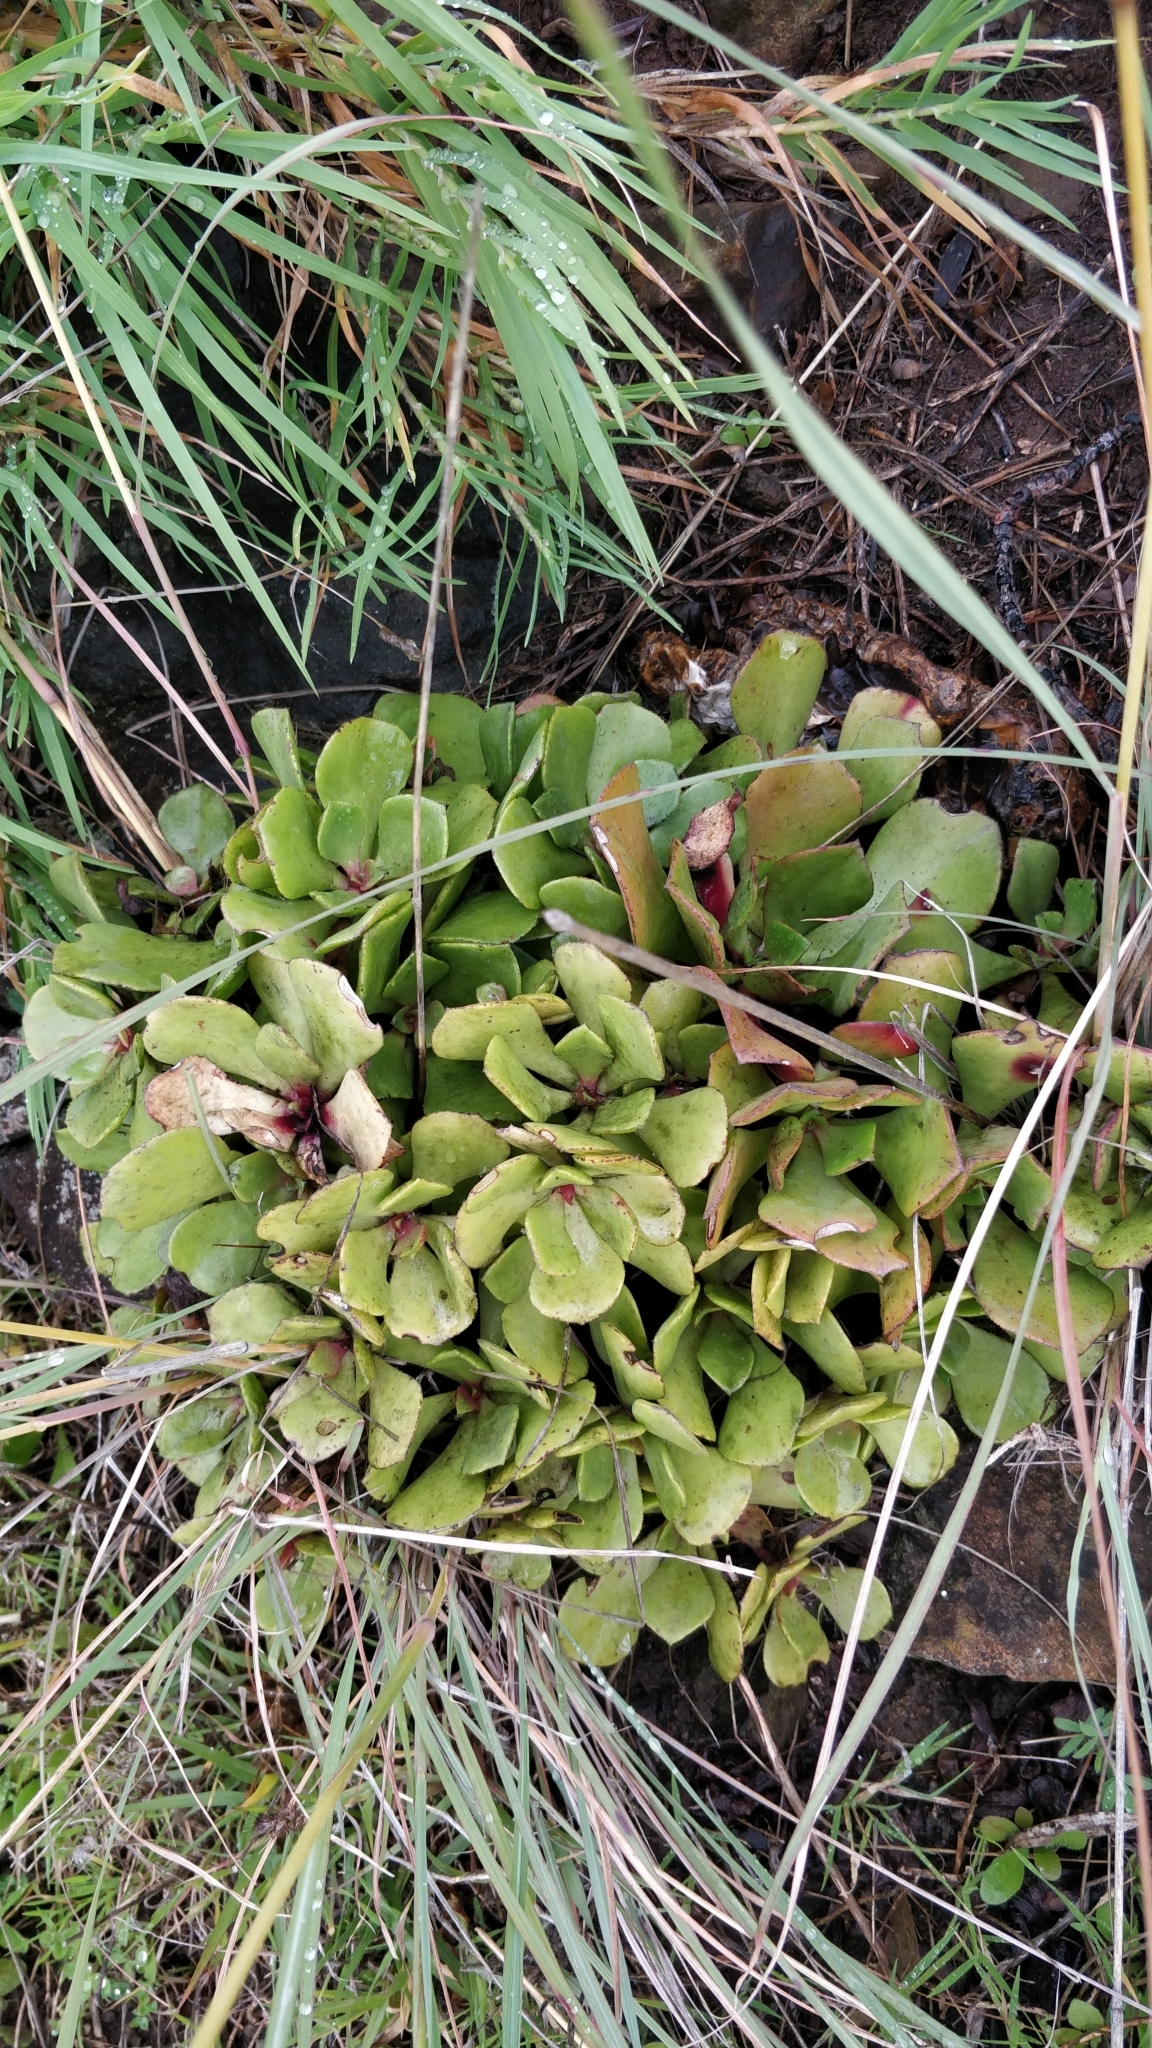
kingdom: Plantae
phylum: Tracheophyta
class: Magnoliopsida
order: Saxifragales
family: Crassulaceae
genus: Aeonium
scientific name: Aeonium glutinosum
